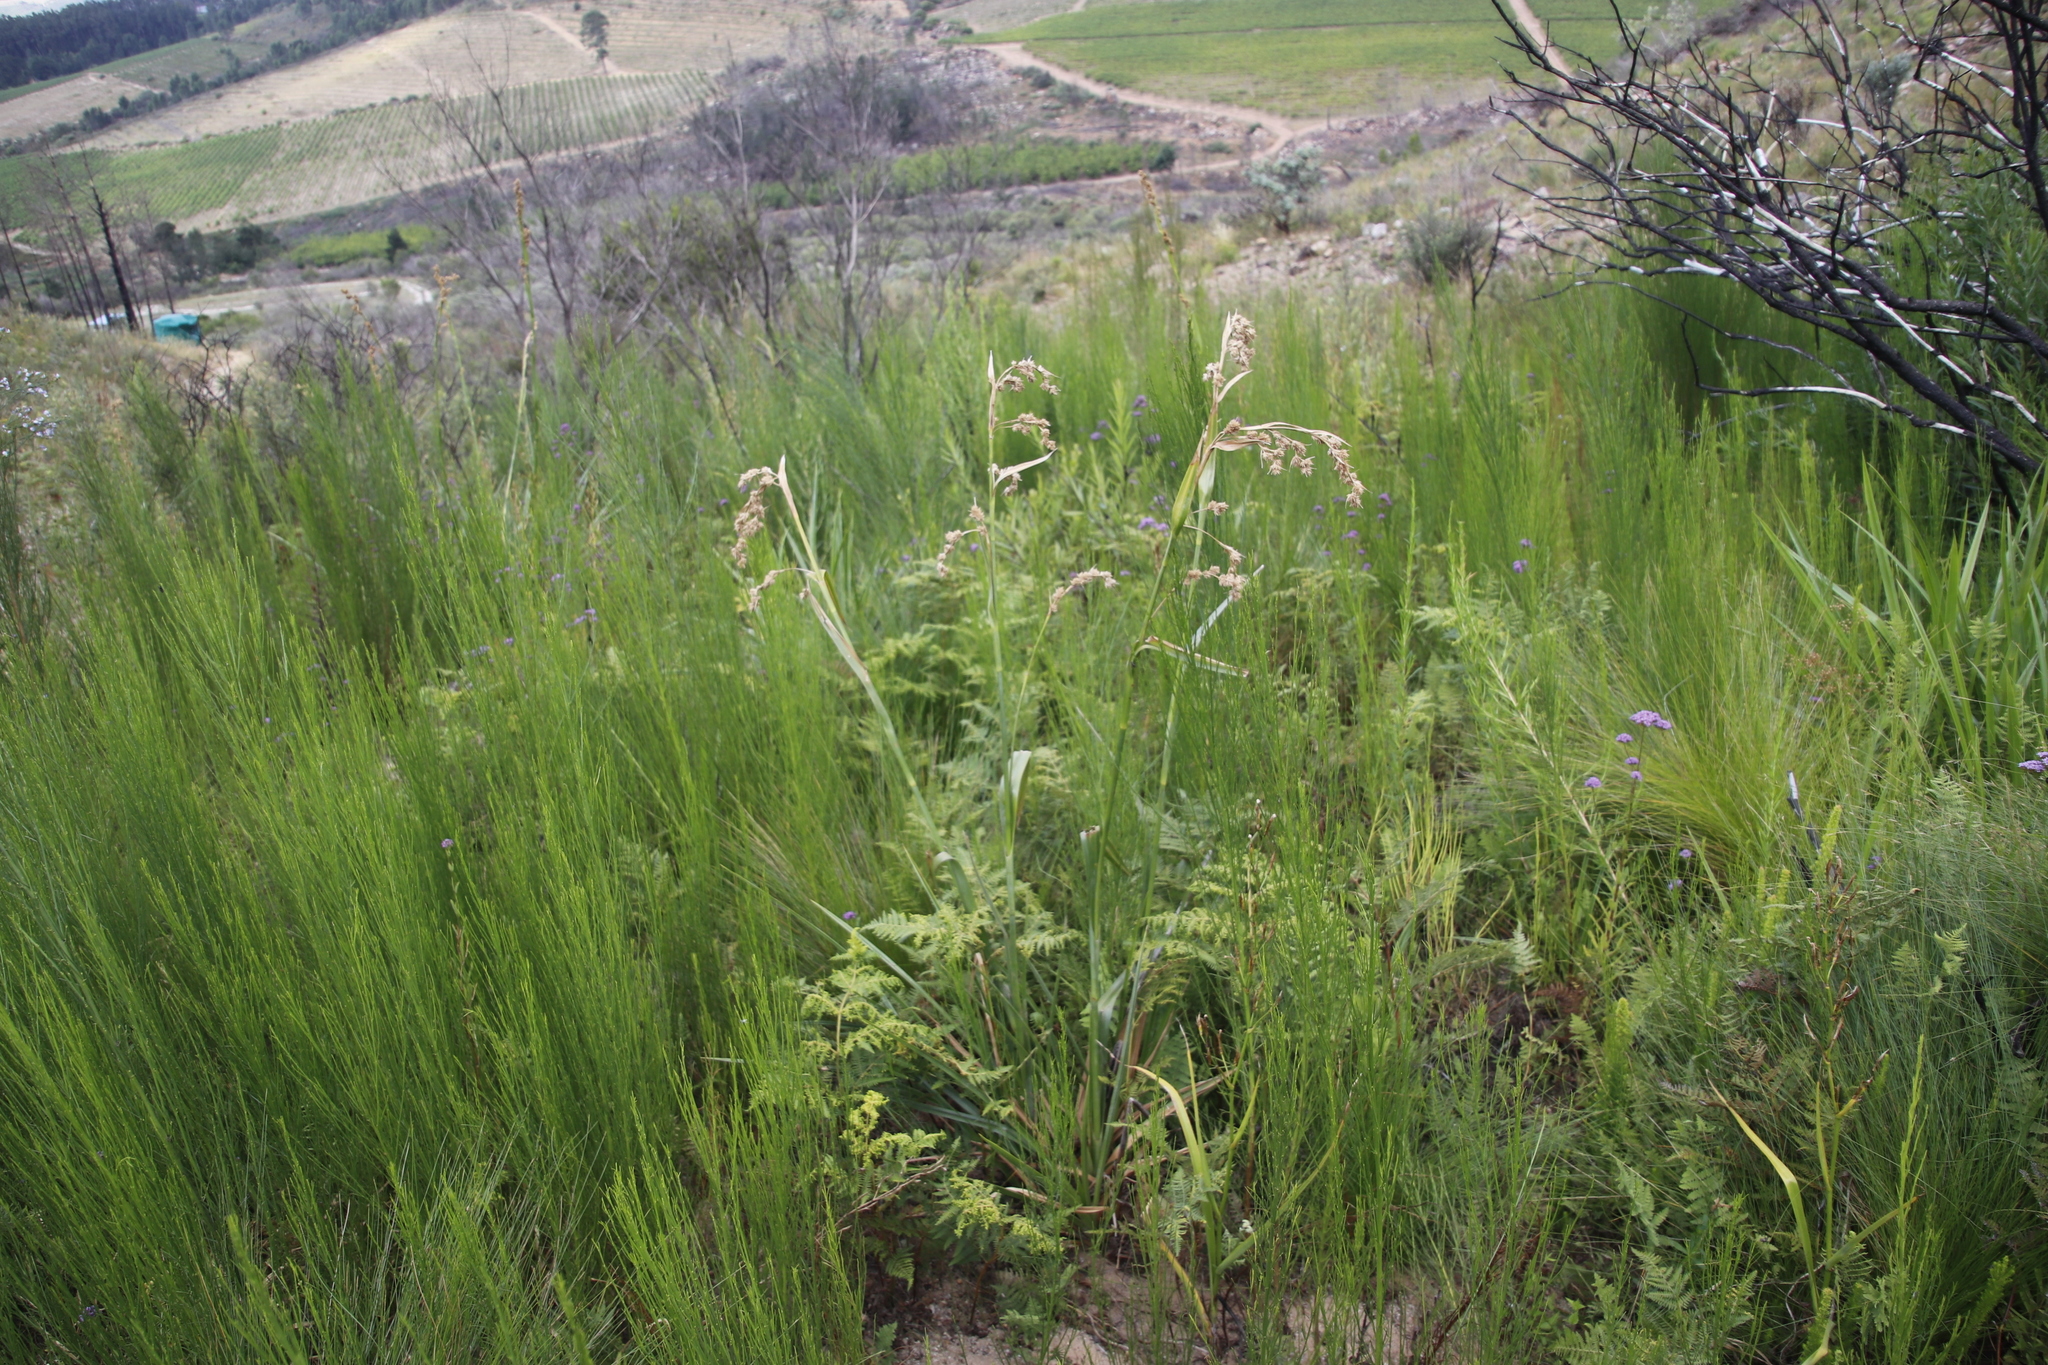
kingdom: Plantae
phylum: Tracheophyta
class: Liliopsida
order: Poales
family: Cyperaceae
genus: Carpha
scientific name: Carpha glomerata
